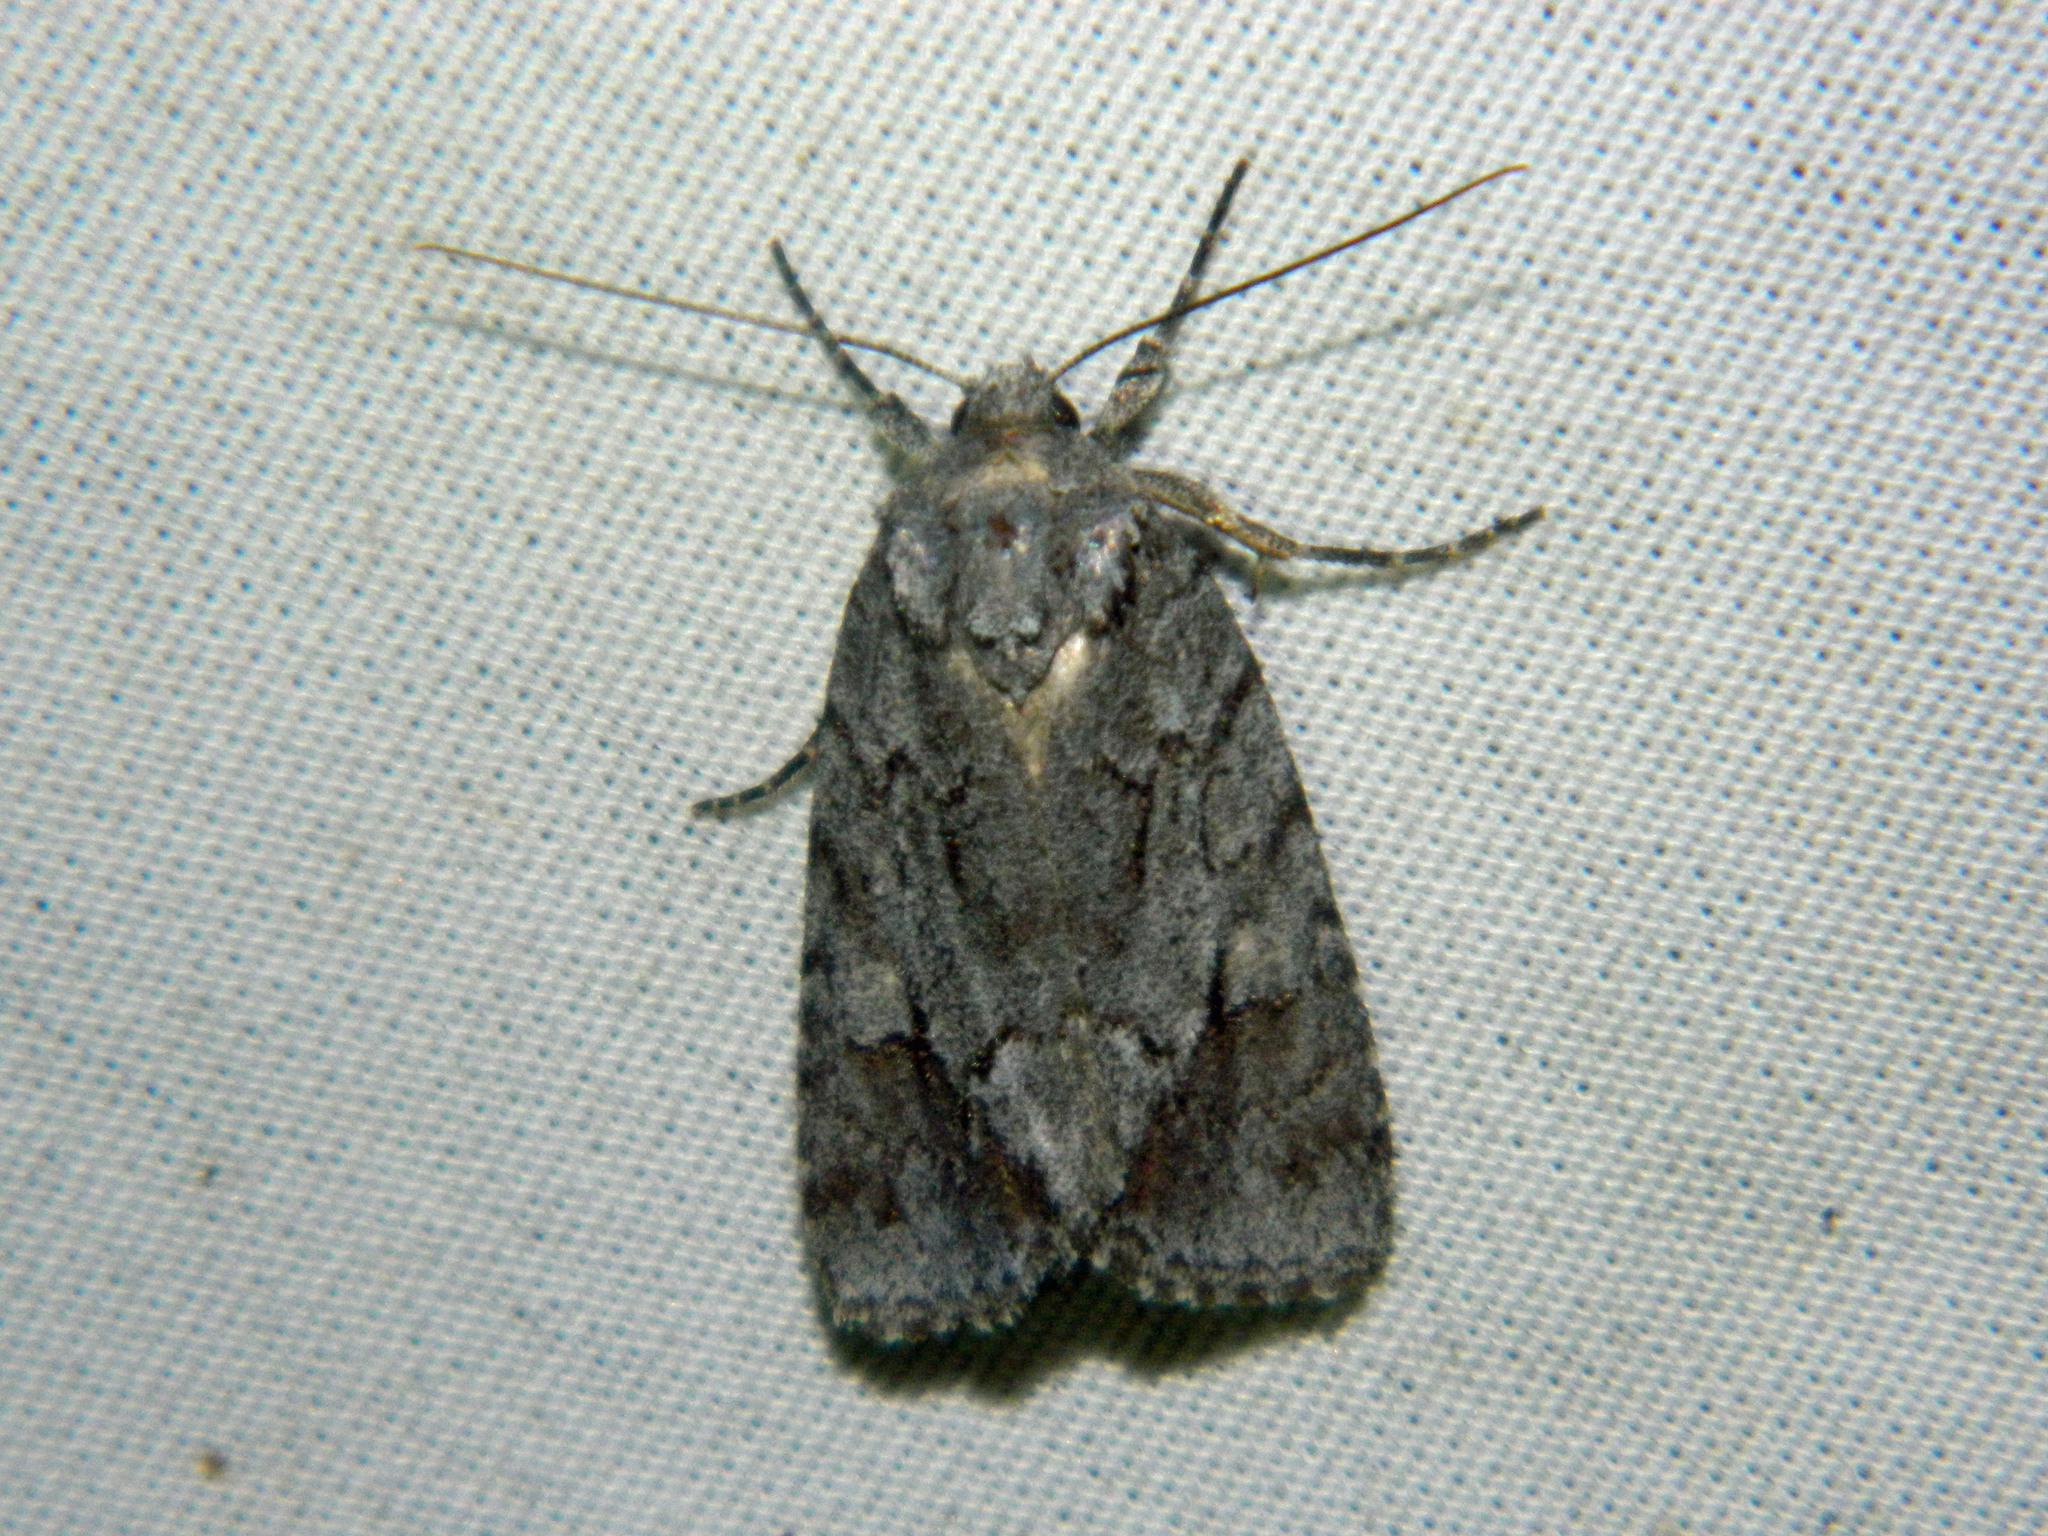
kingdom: Animalia
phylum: Arthropoda
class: Insecta
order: Lepidoptera
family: Noctuidae
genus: Sympistis
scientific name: Sympistis dentata
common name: Blueberry sallow
